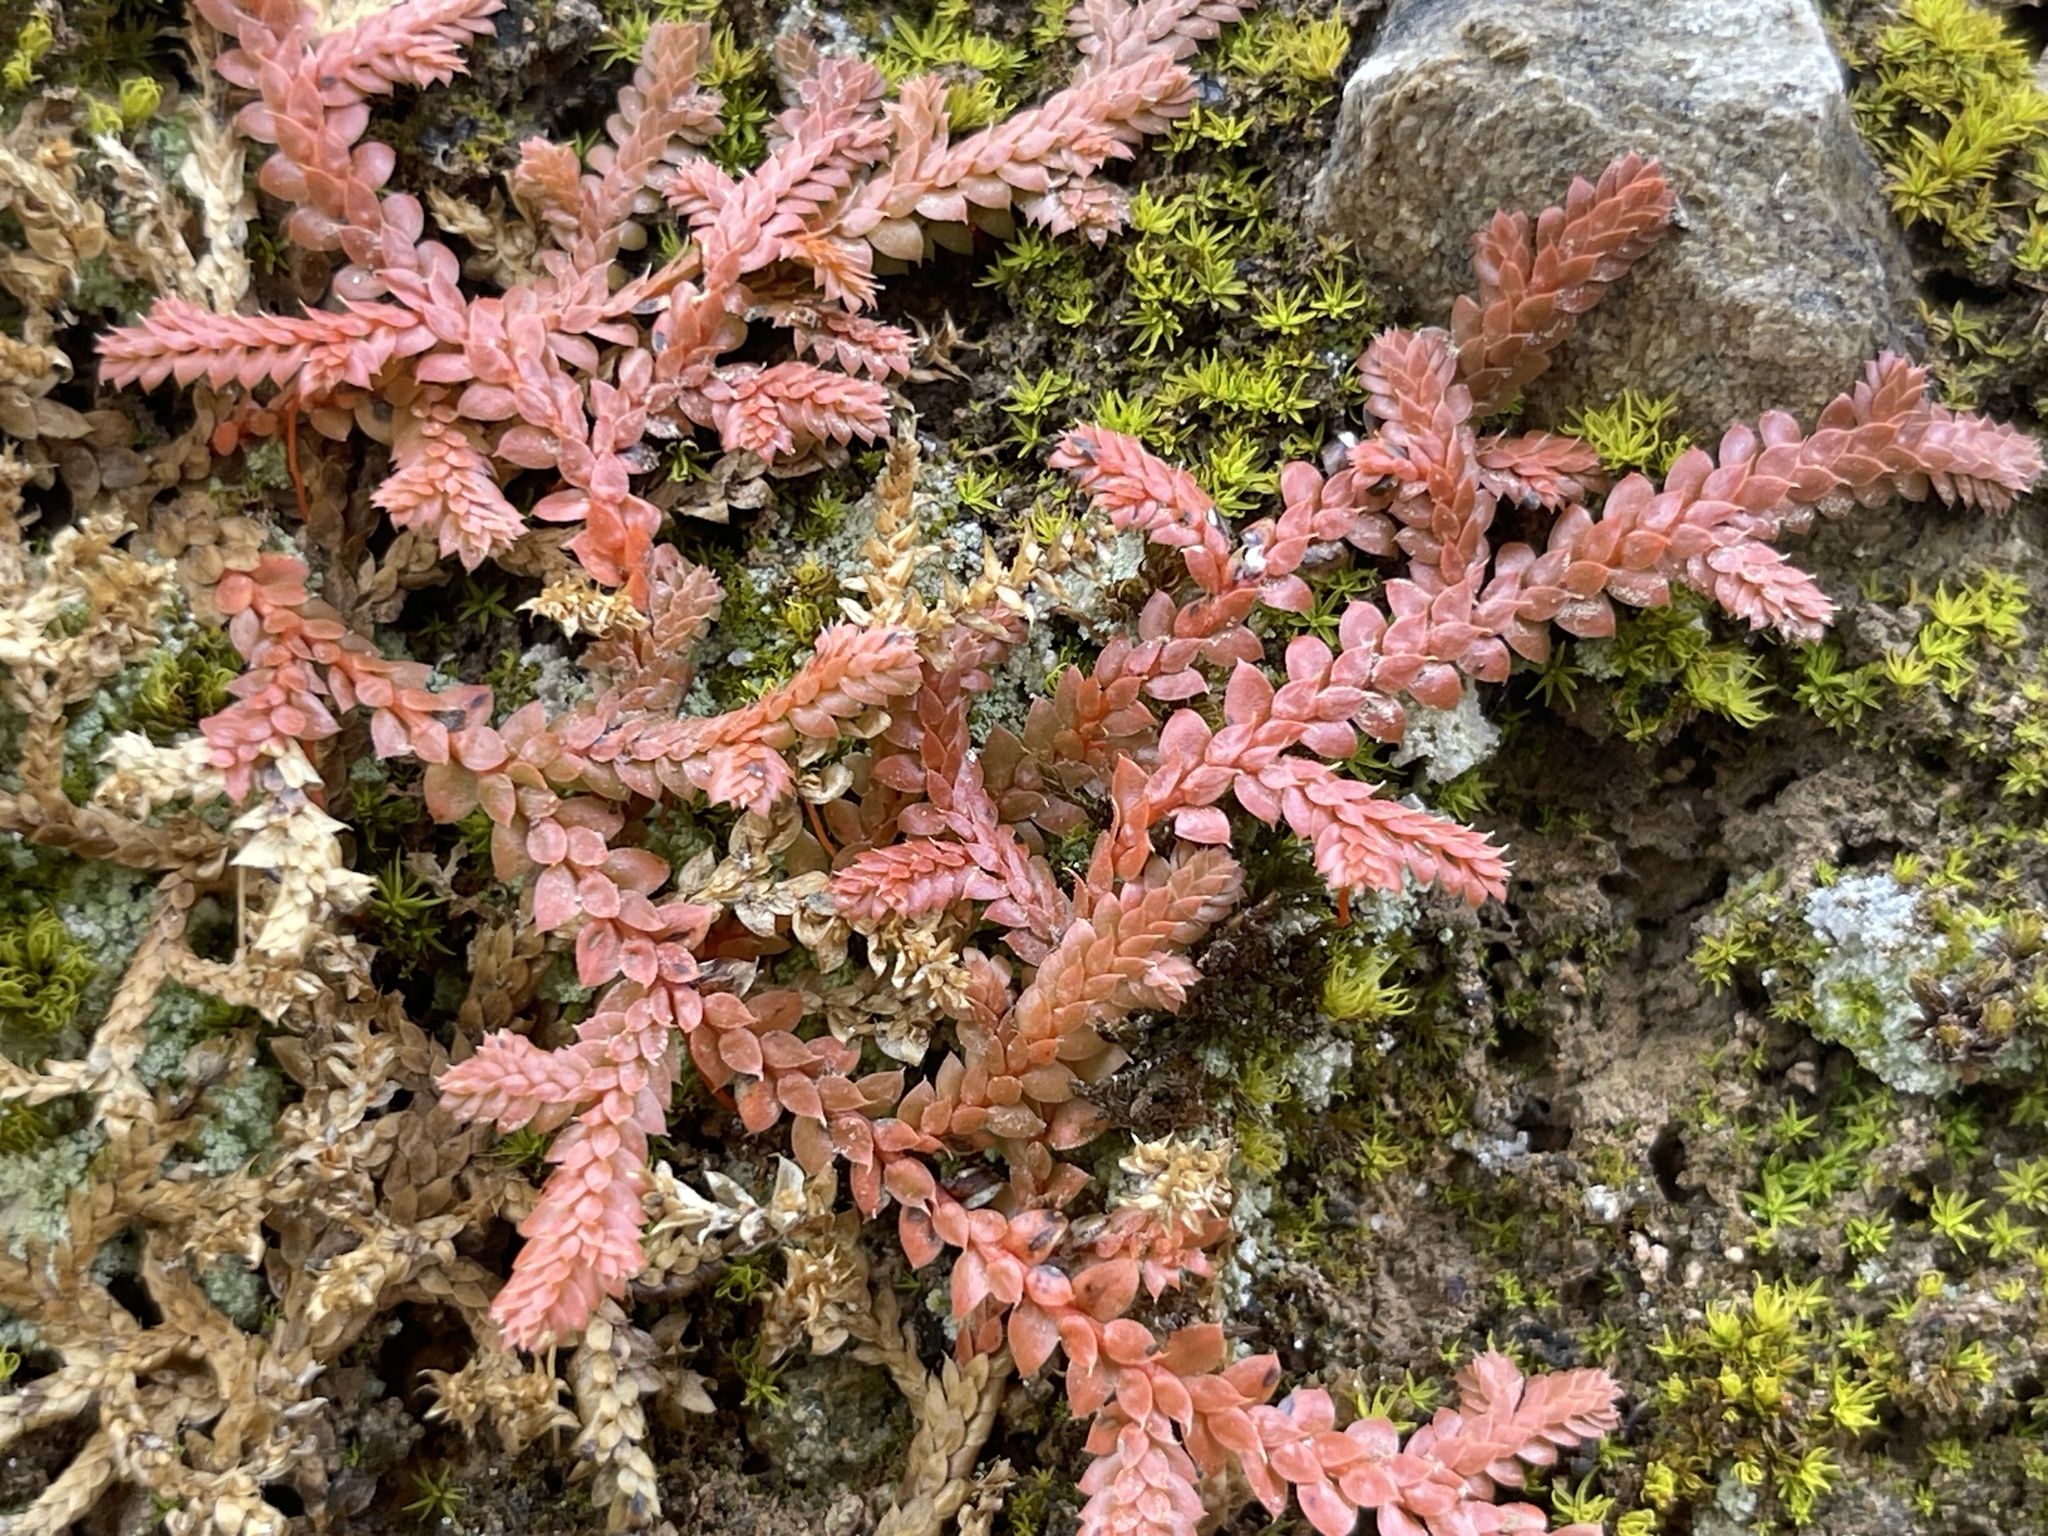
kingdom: Plantae
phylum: Tracheophyta
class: Lycopodiopsida
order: Selaginellales
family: Selaginellaceae
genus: Selaginella
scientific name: Selaginella denticulata
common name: Toothed-leaved clubmoss
